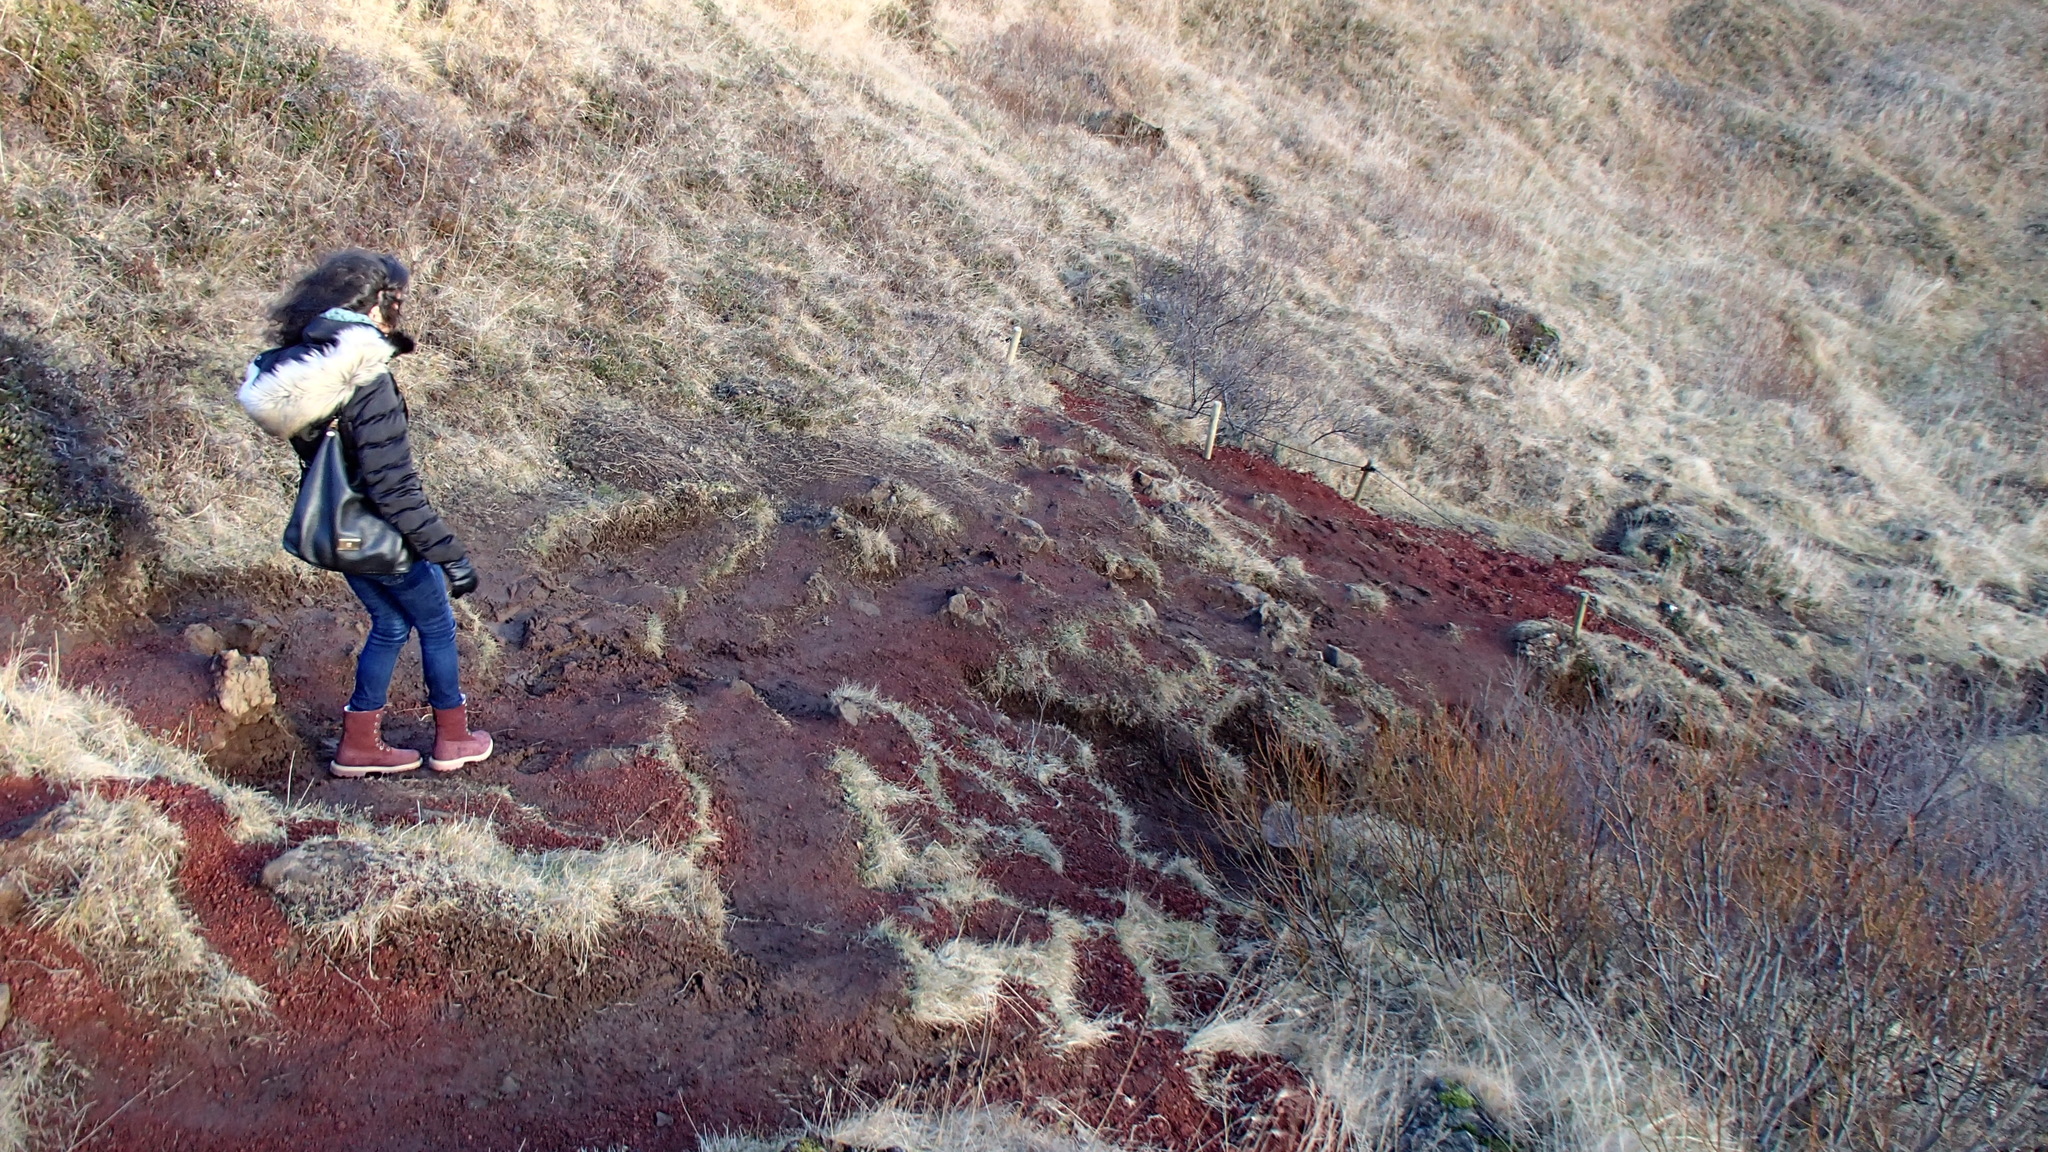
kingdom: Plantae
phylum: Bryophyta
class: Bryopsida
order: Grimmiales
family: Grimmiaceae
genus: Racomitrium
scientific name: Racomitrium lanuginosum
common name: Hoary rock moss
